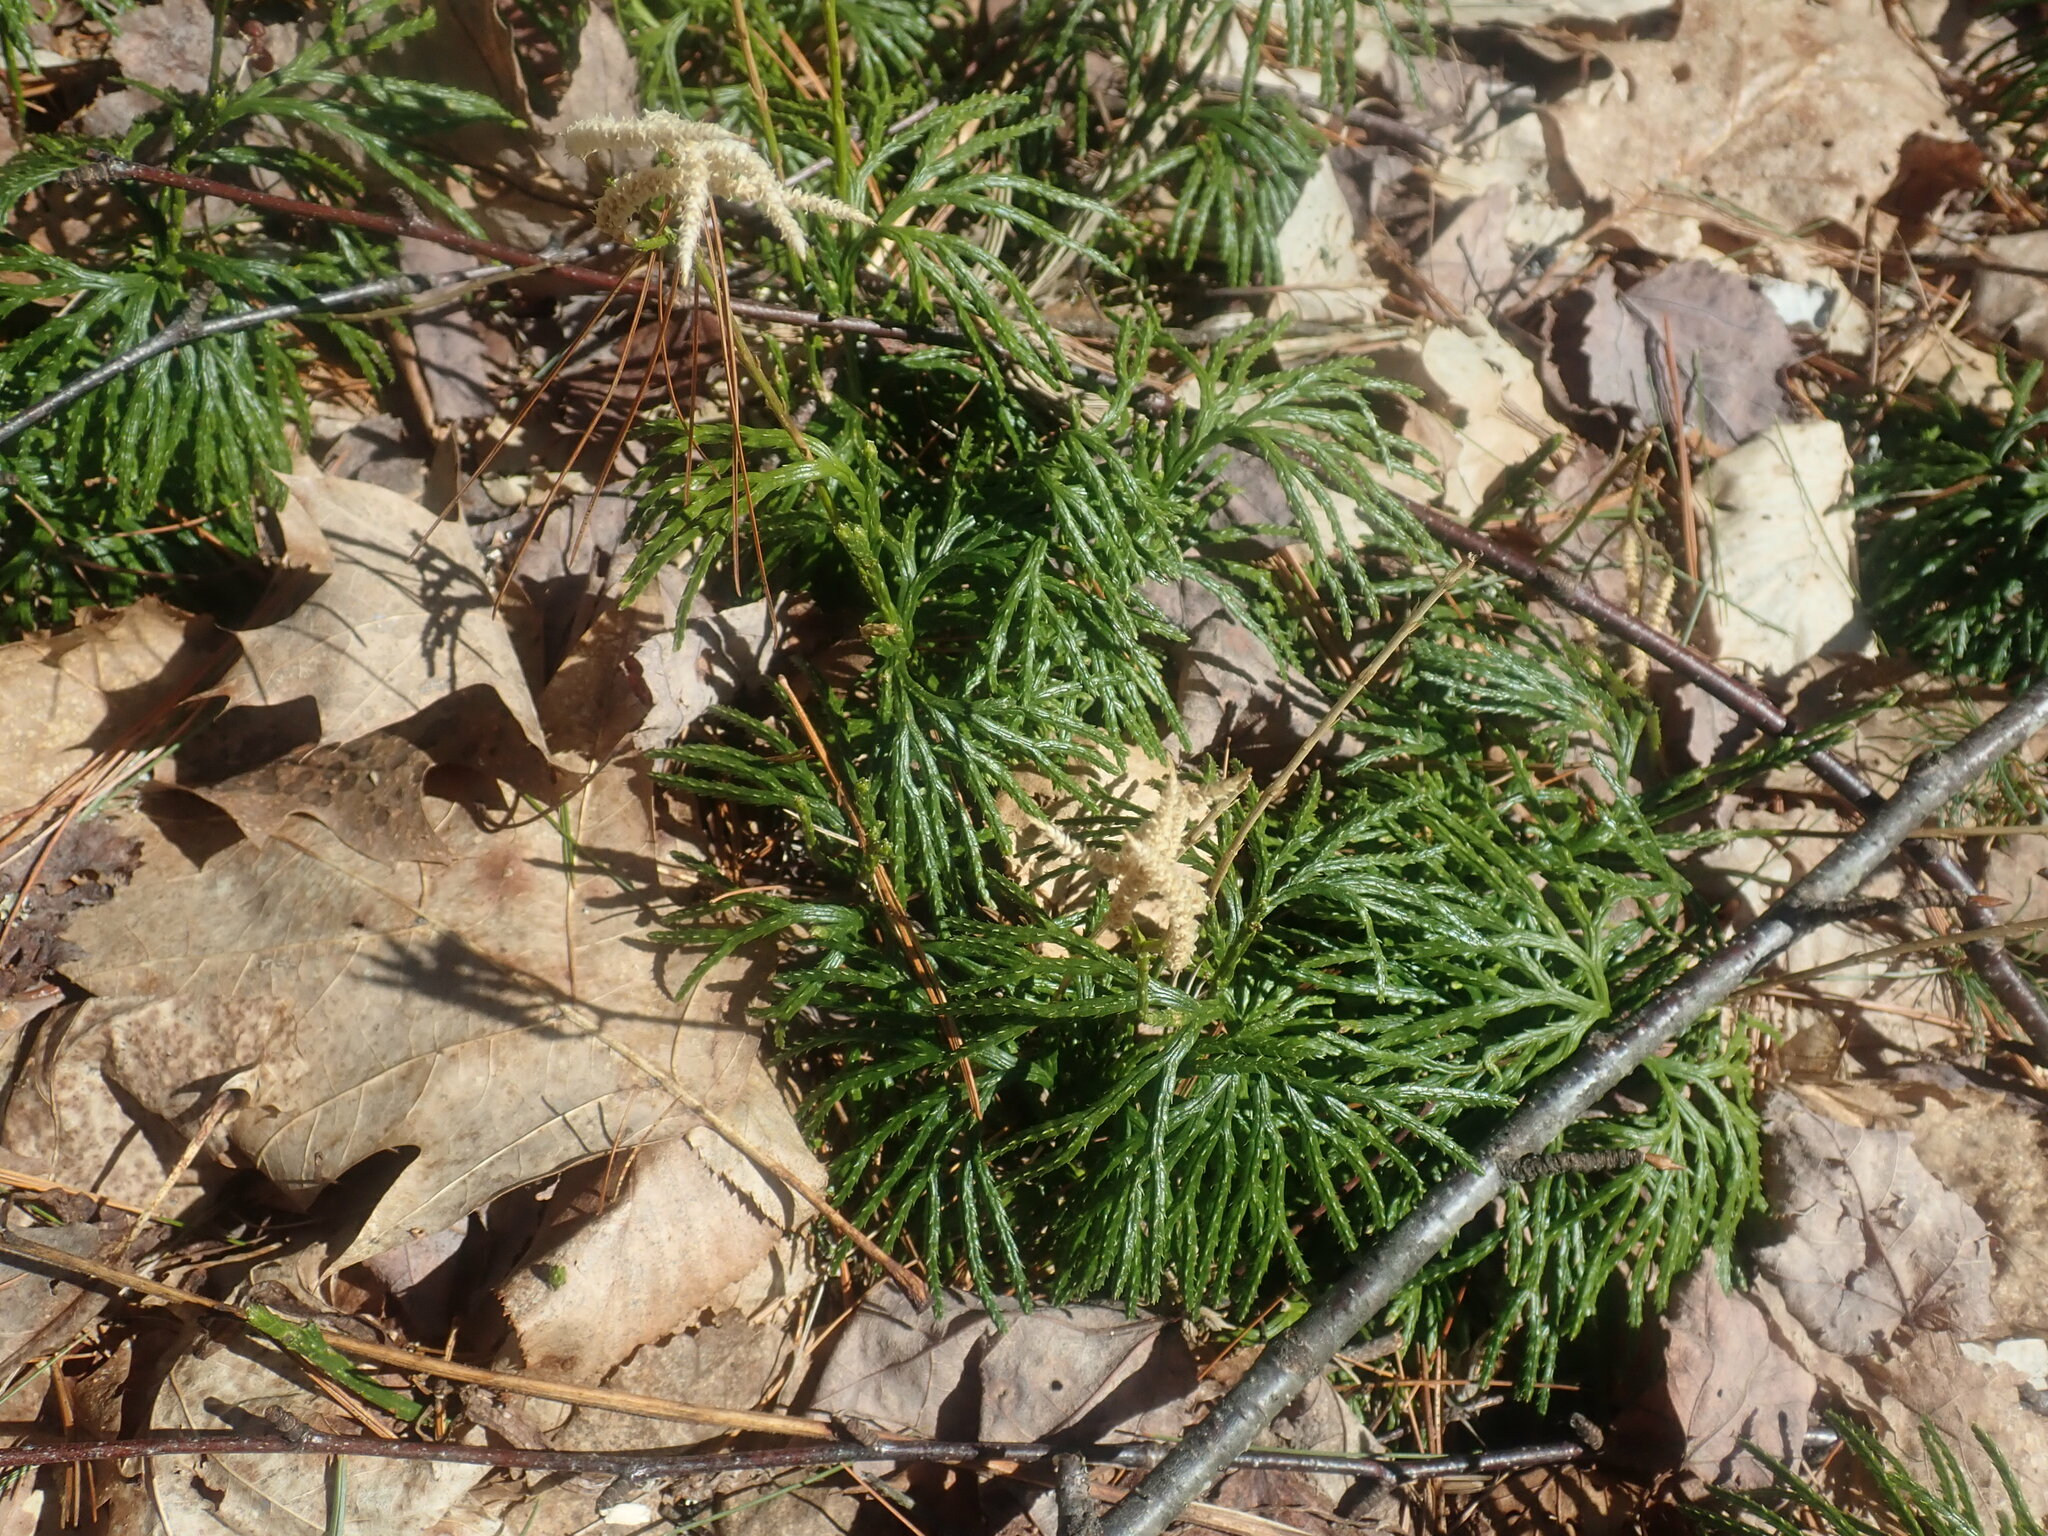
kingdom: Plantae
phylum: Tracheophyta
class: Lycopodiopsida
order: Lycopodiales
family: Lycopodiaceae
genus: Diphasiastrum
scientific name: Diphasiastrum digitatum
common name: Southern running-pine
